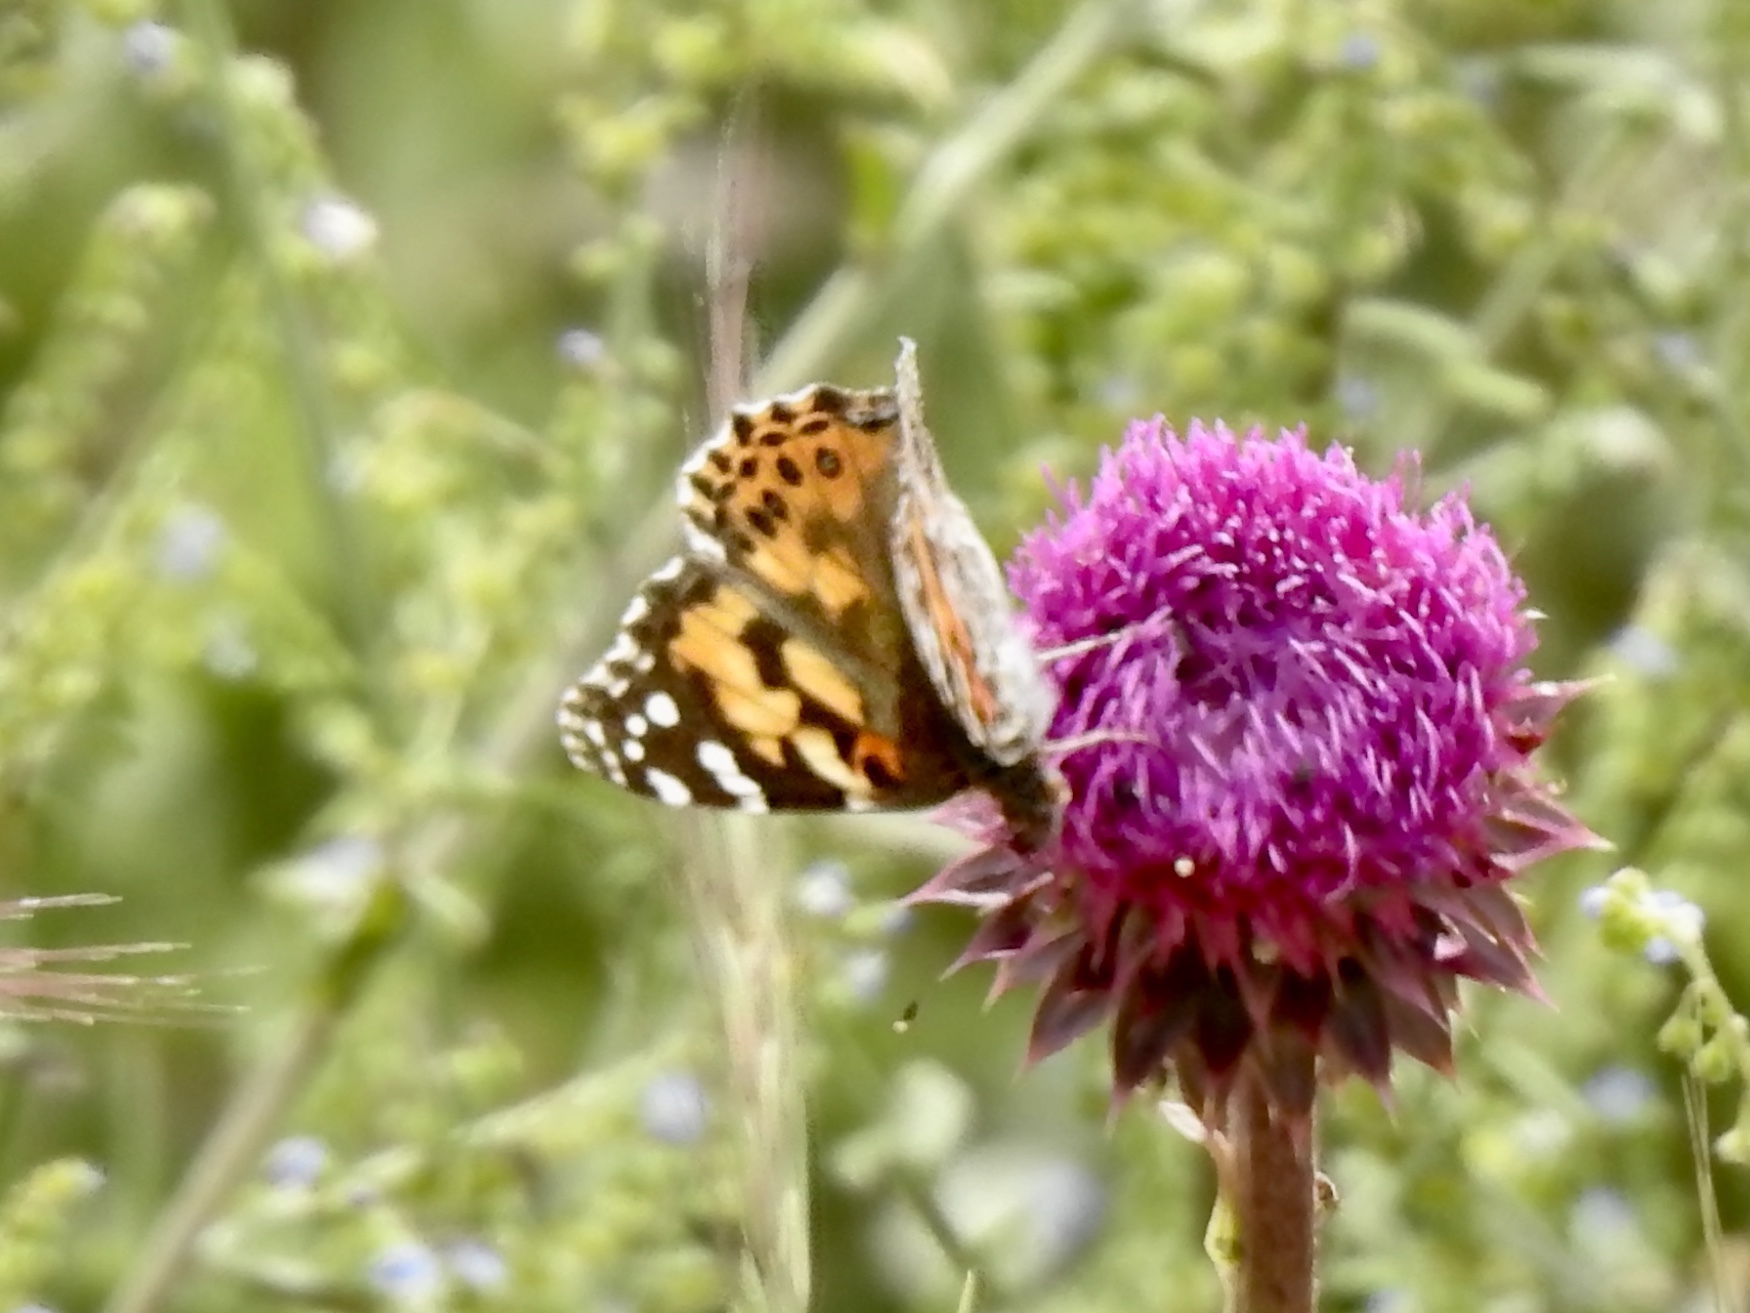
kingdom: Animalia
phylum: Arthropoda
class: Insecta
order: Lepidoptera
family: Nymphalidae
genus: Vanessa
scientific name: Vanessa cardui
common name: Painted lady
